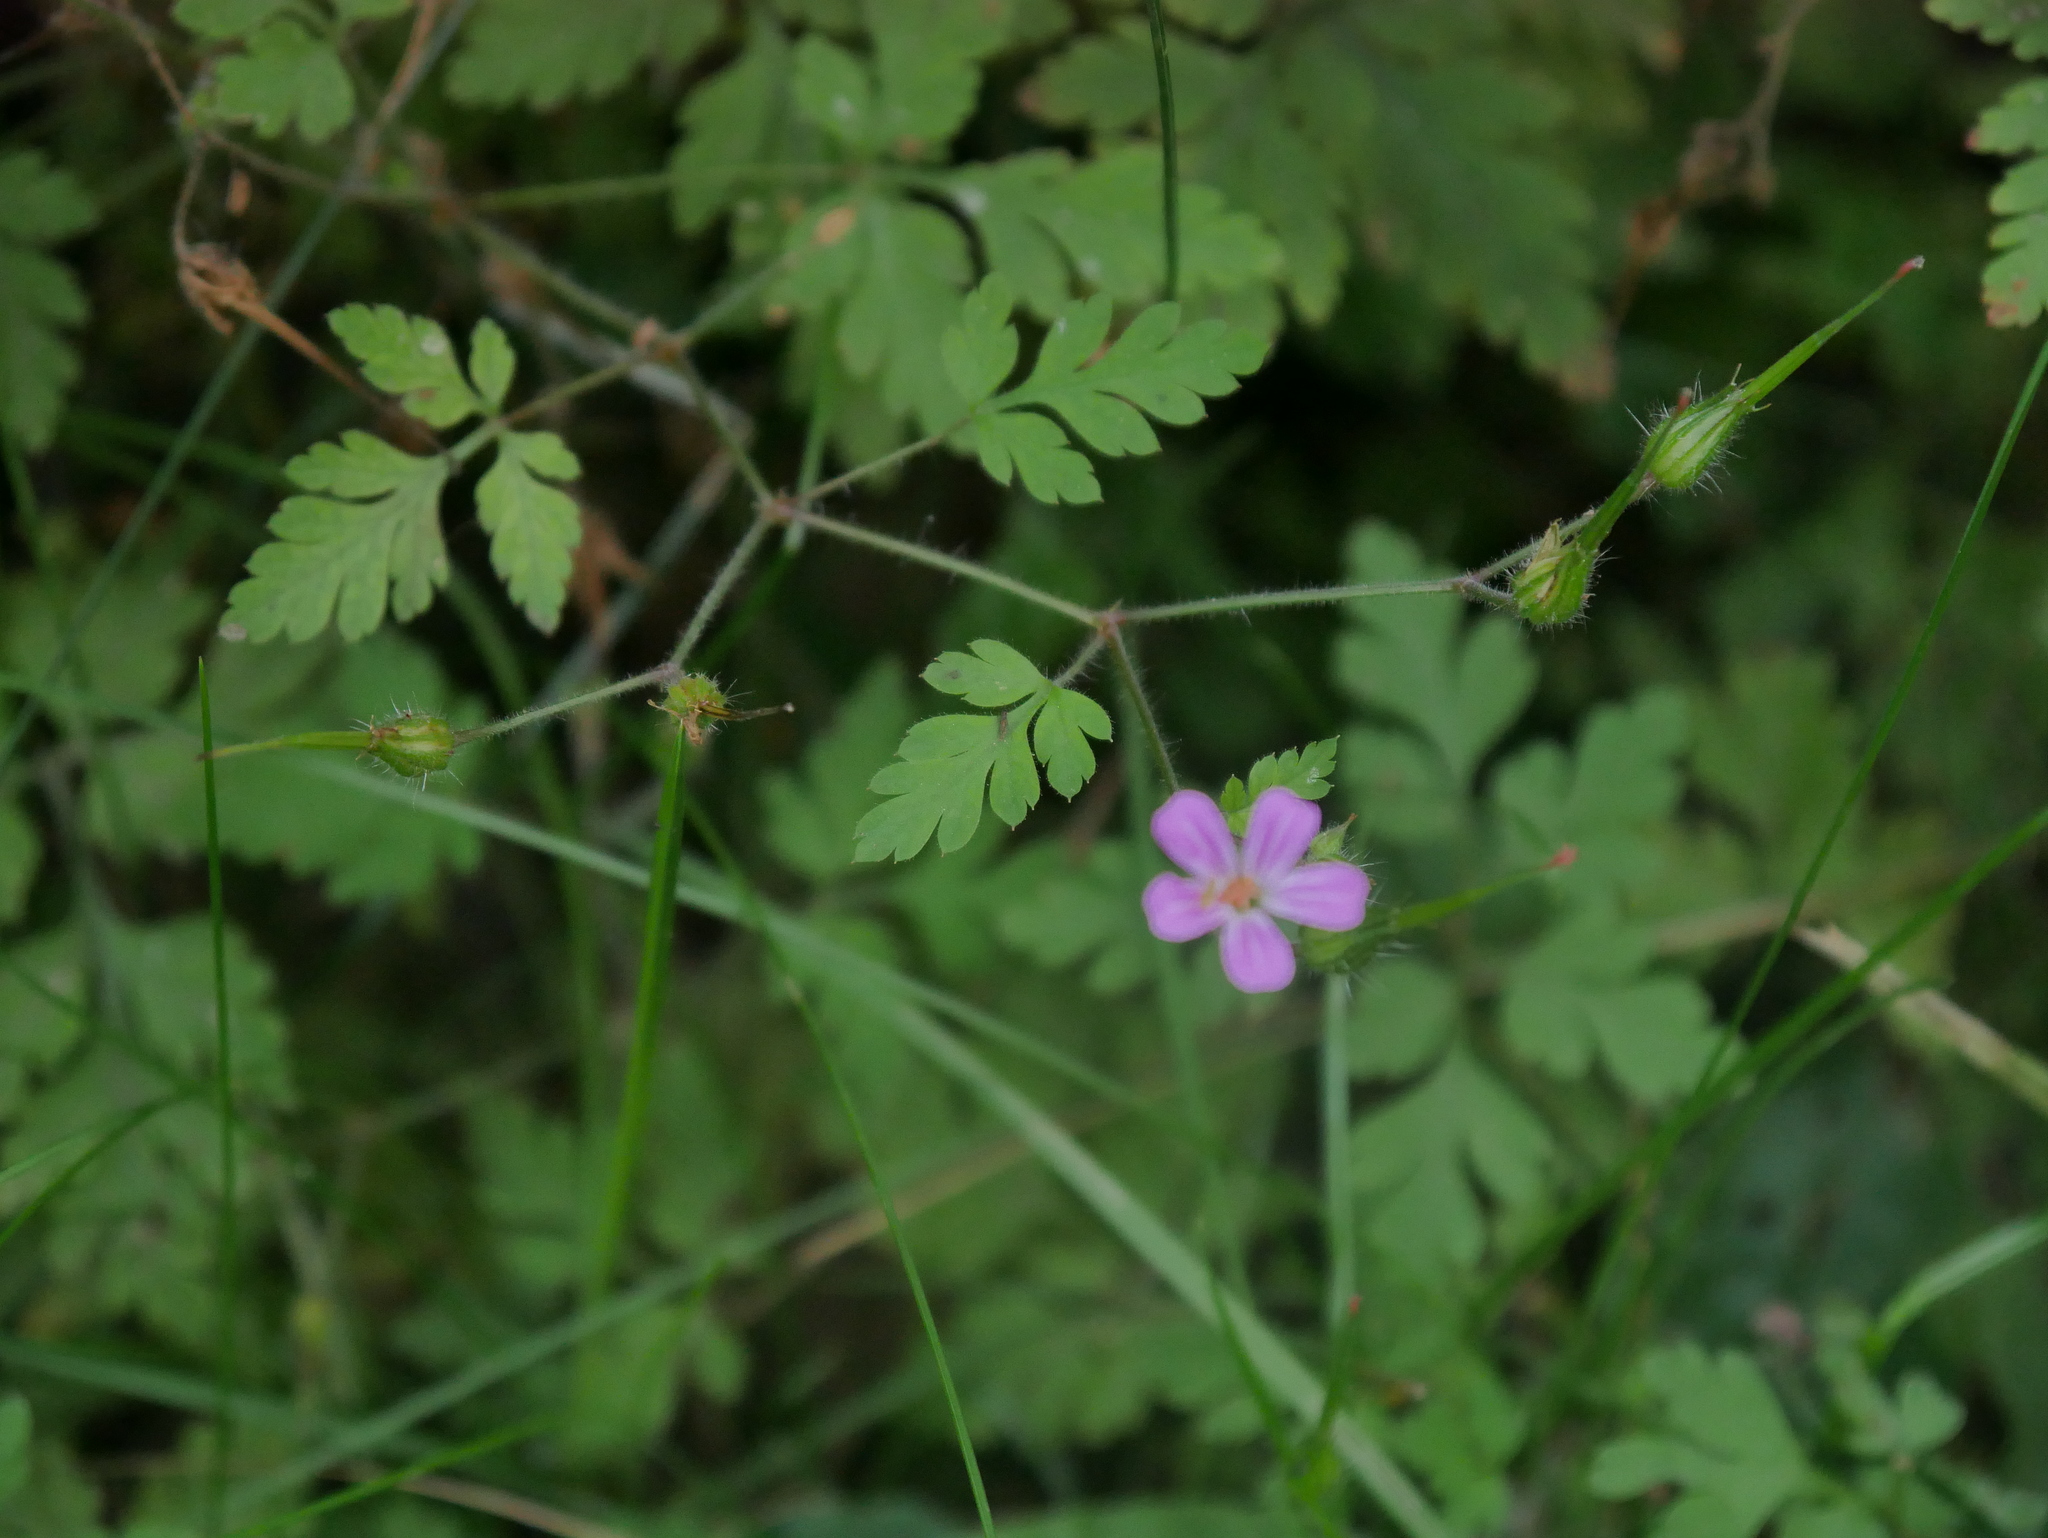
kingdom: Plantae
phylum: Tracheophyta
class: Magnoliopsida
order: Geraniales
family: Geraniaceae
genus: Geranium
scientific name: Geranium robertianum
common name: Herb-robert
